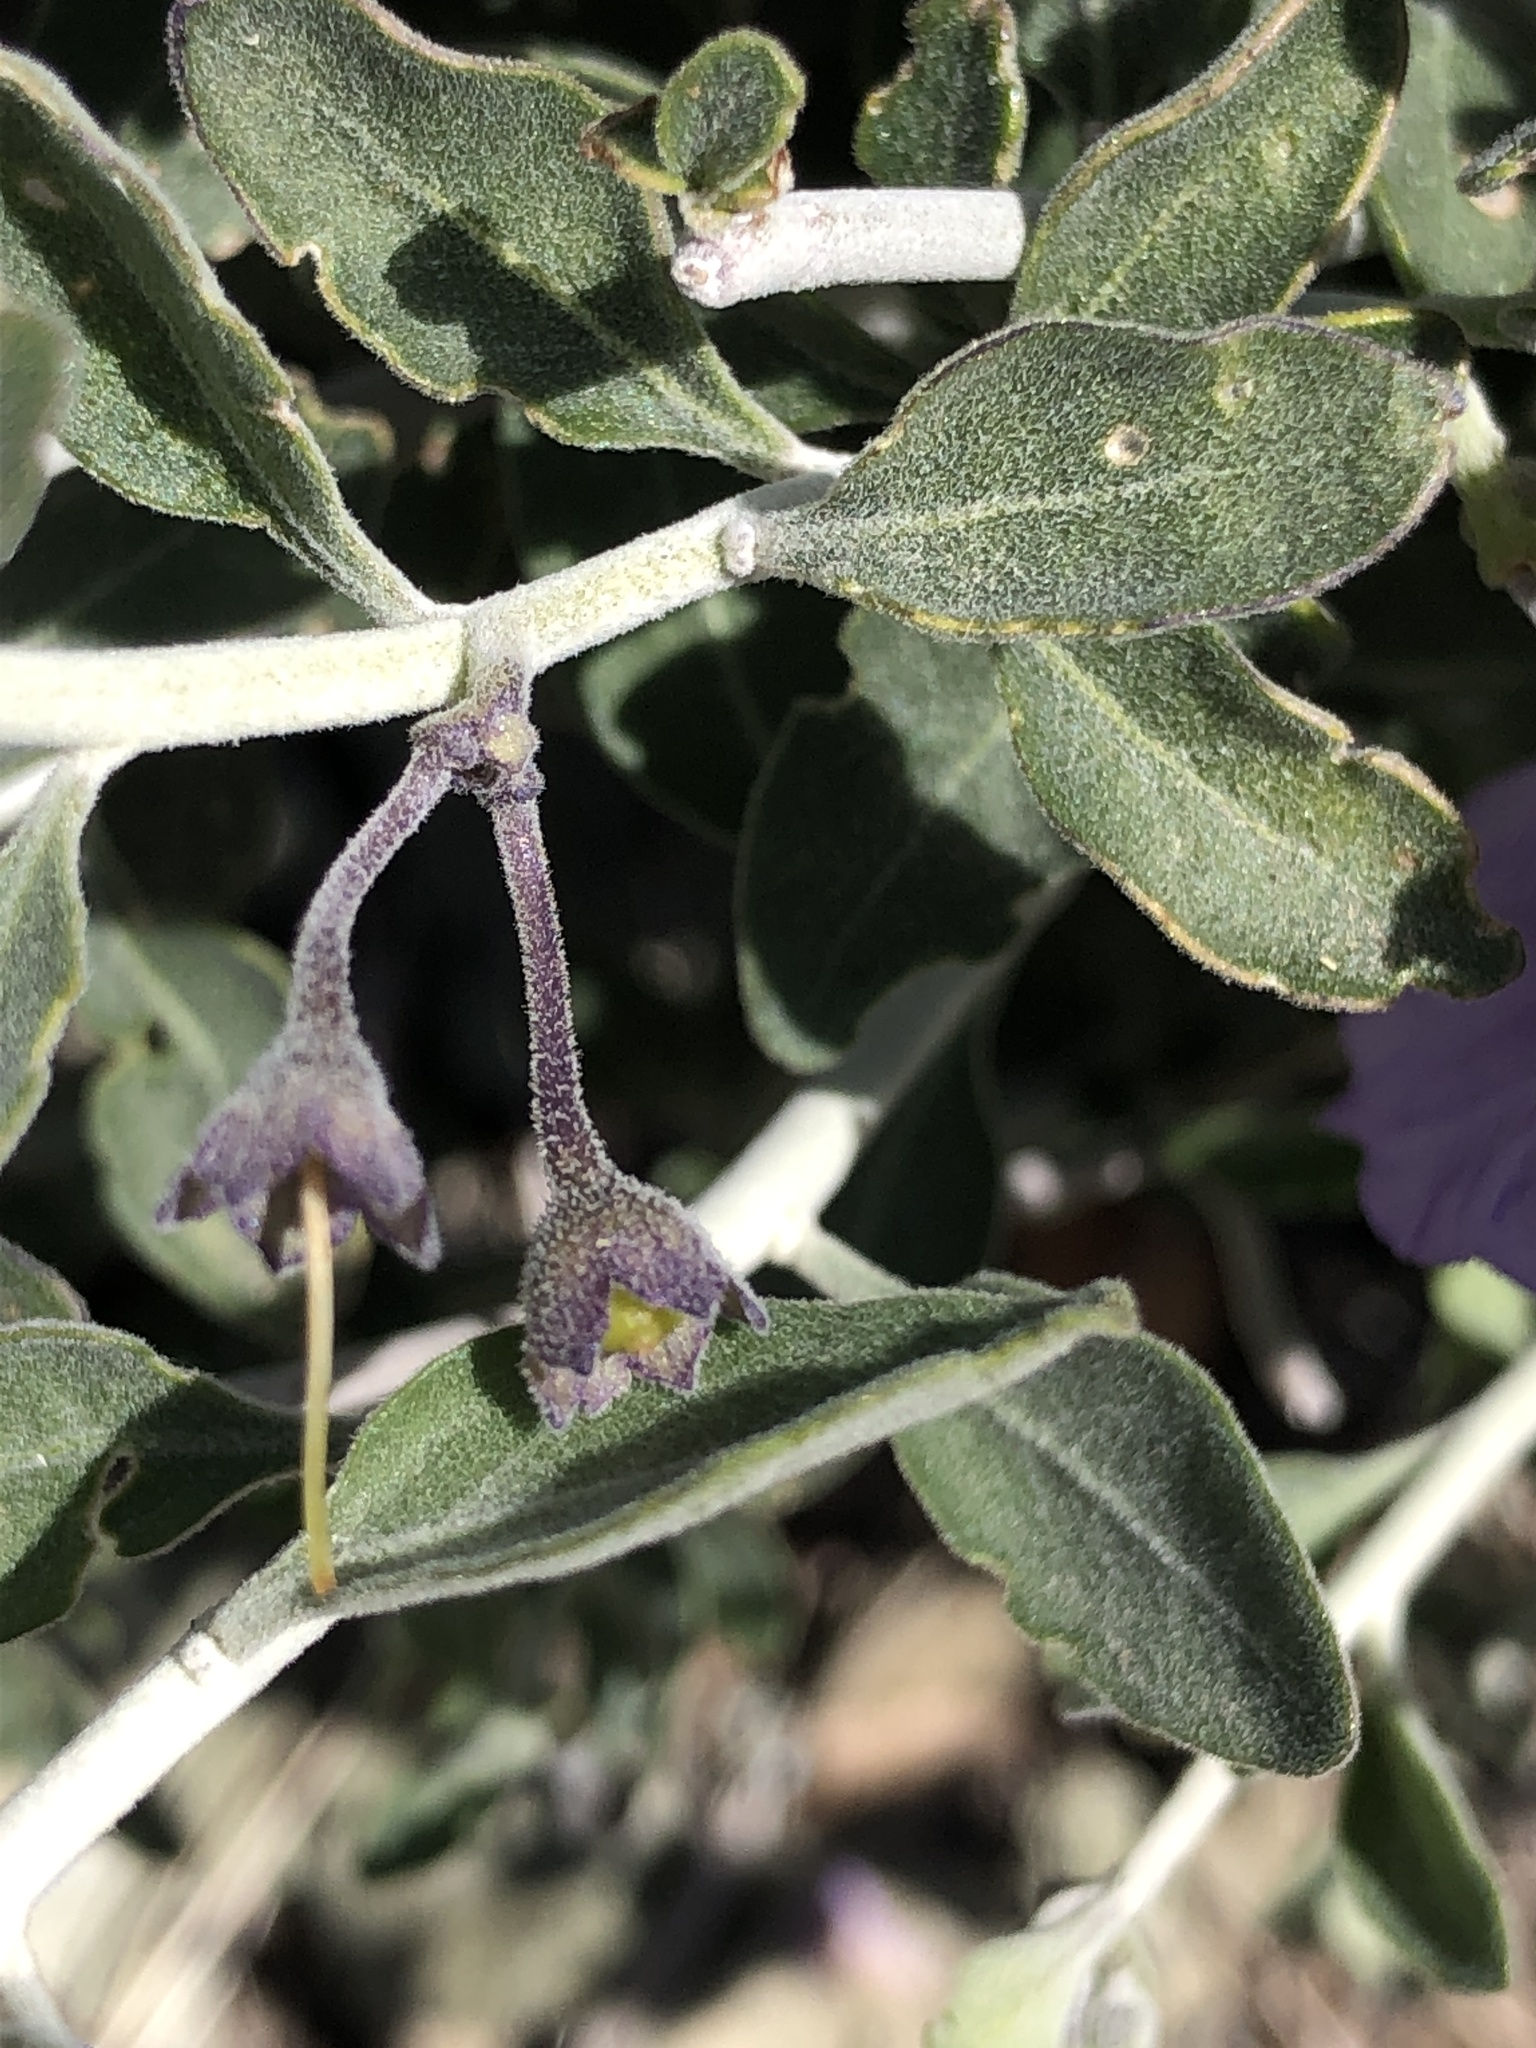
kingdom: Plantae
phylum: Tracheophyta
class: Magnoliopsida
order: Solanales
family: Solanaceae
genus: Solanum
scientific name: Solanum umbelliferum
